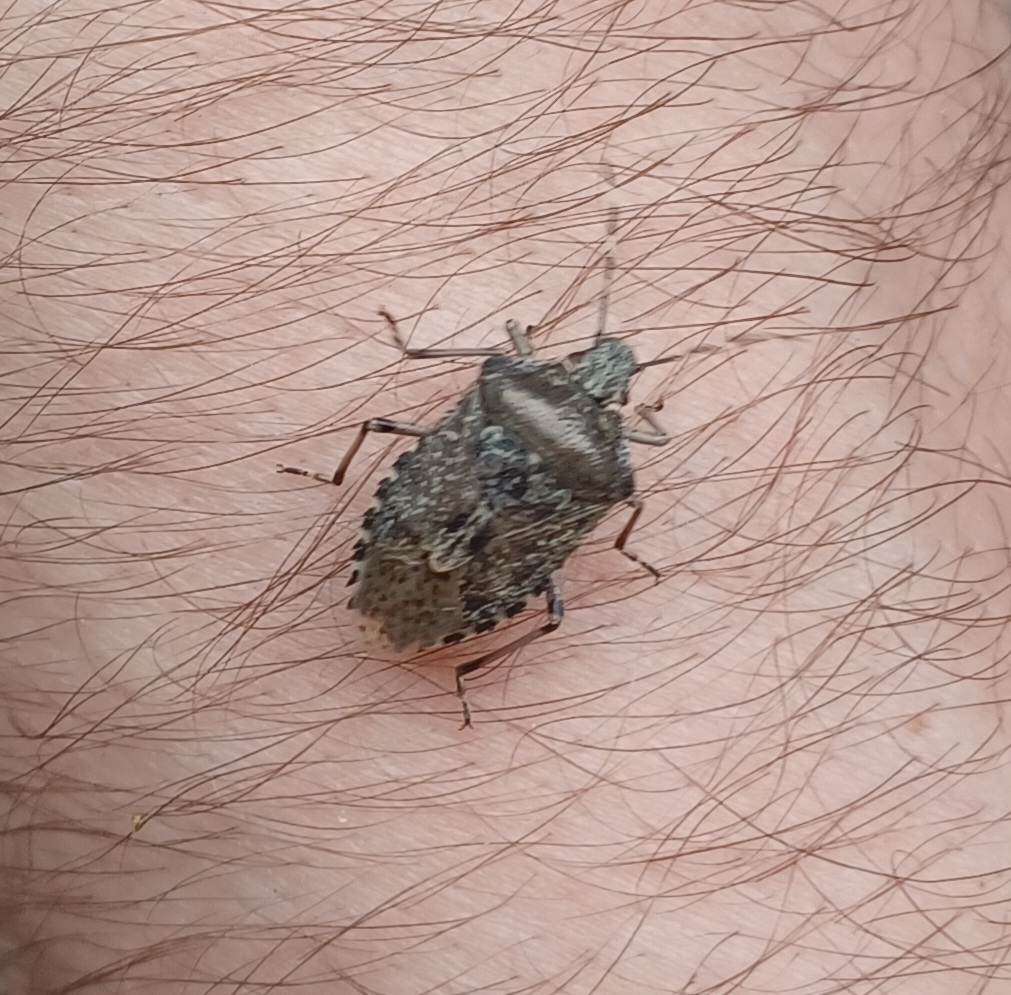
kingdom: Animalia
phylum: Arthropoda
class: Insecta
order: Hemiptera
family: Pentatomidae
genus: Rhaphigaster
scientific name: Rhaphigaster nebulosa
